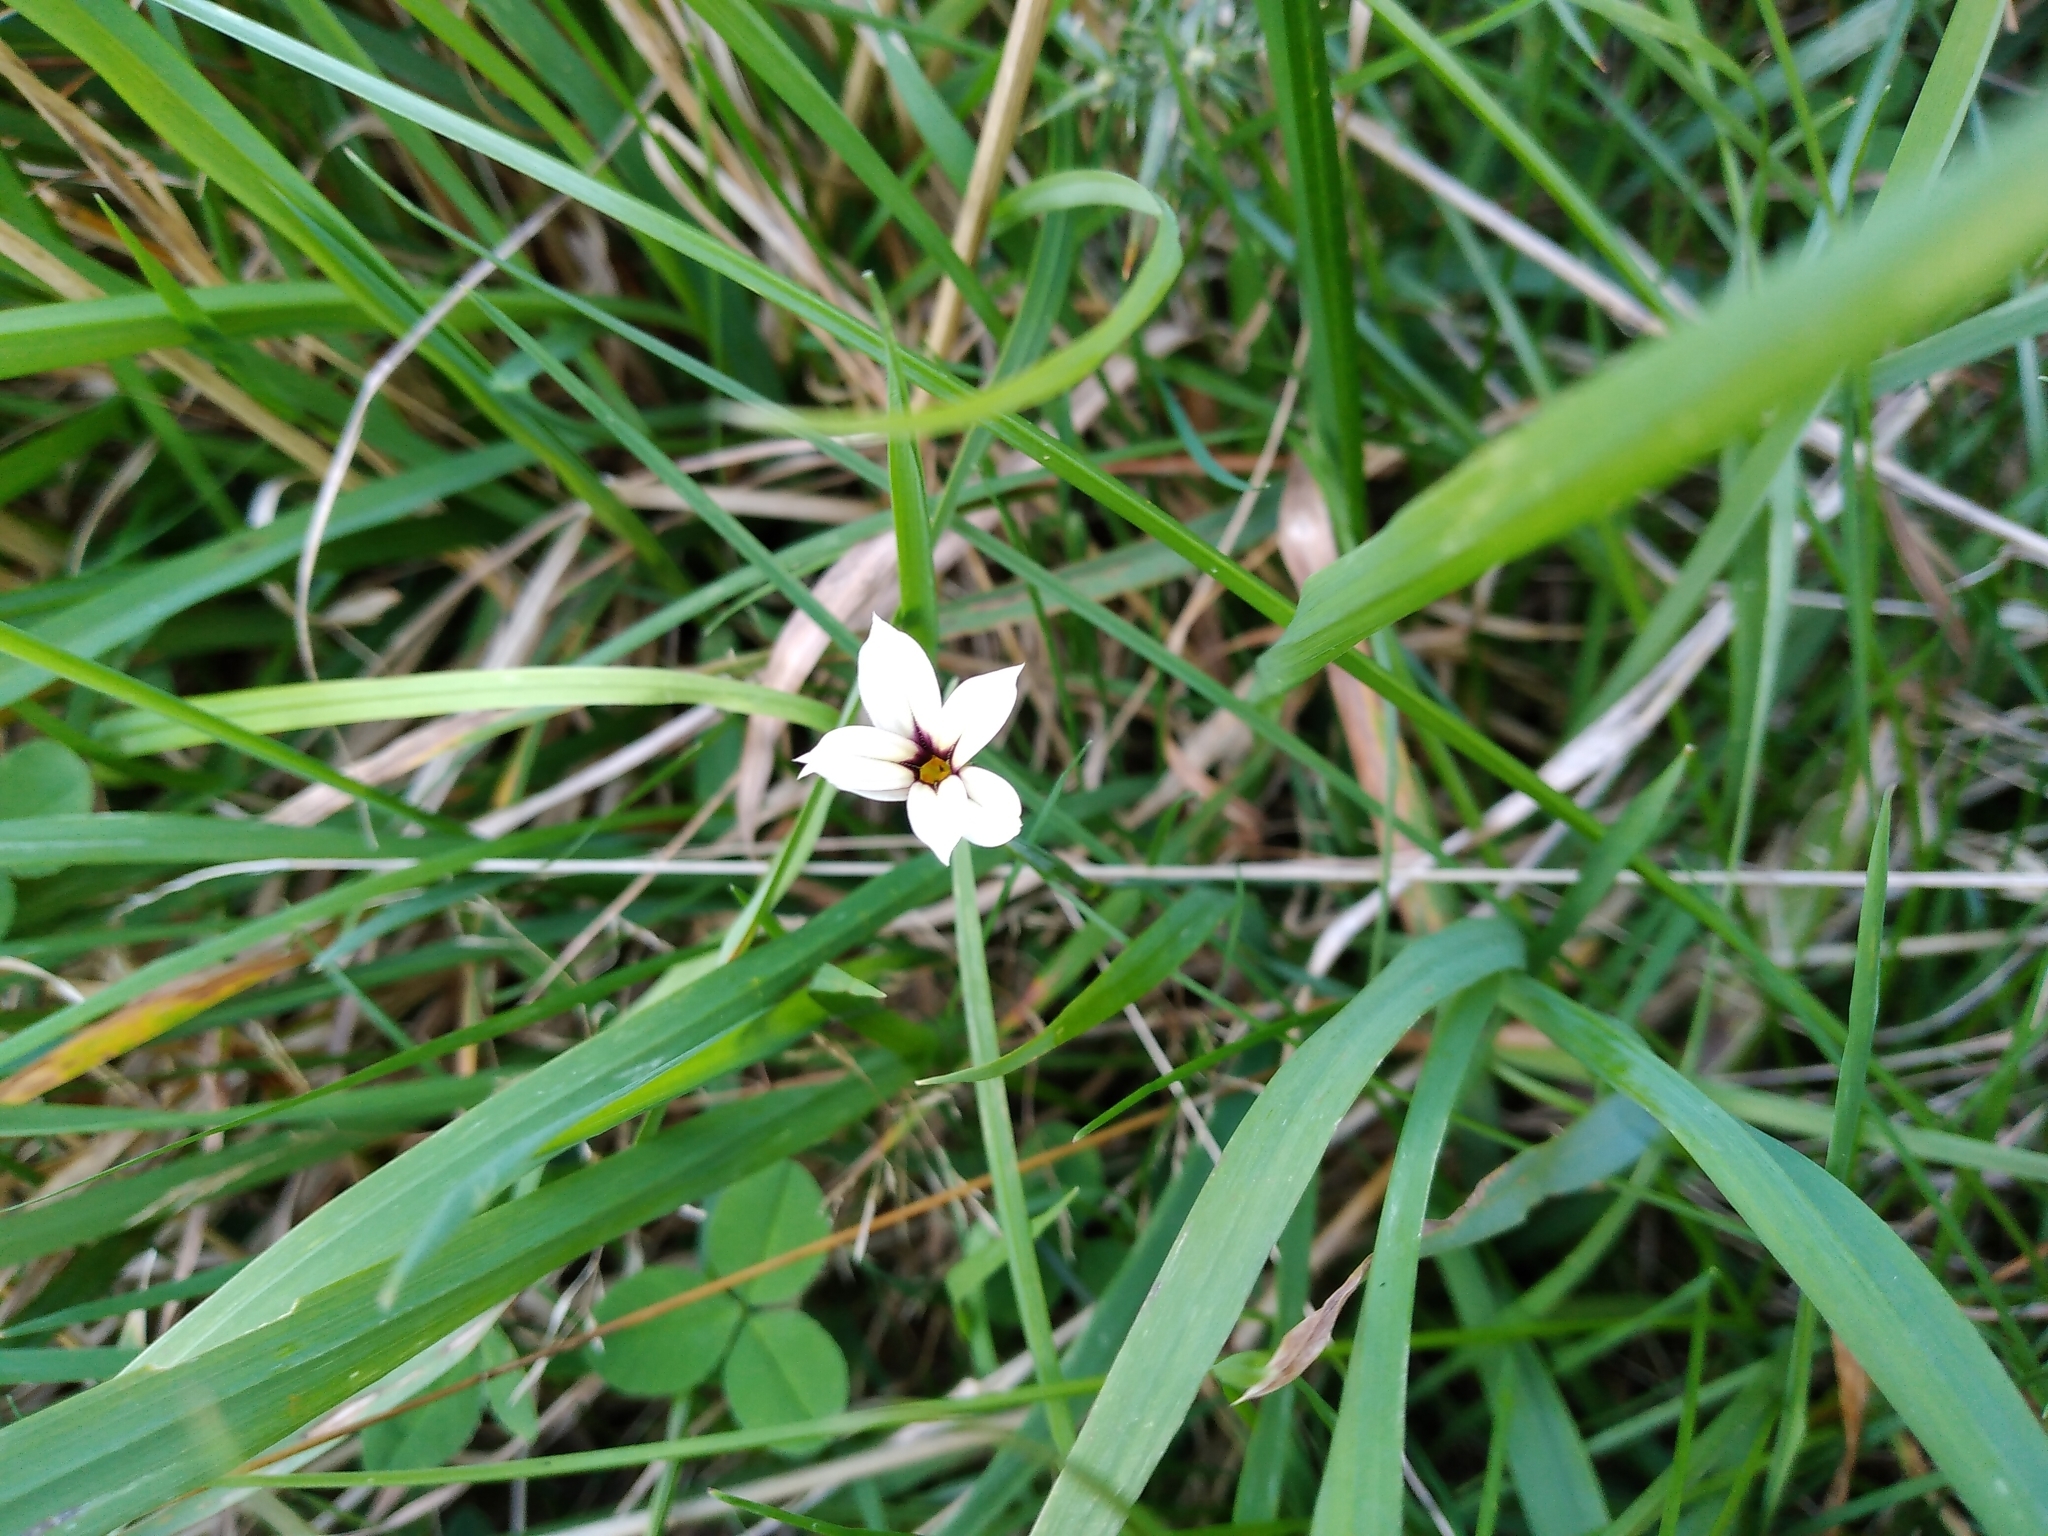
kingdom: Plantae
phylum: Tracheophyta
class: Liliopsida
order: Asparagales
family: Iridaceae
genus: Sisyrinchium
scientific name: Sisyrinchium micranthum
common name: Bermuda pigroot
